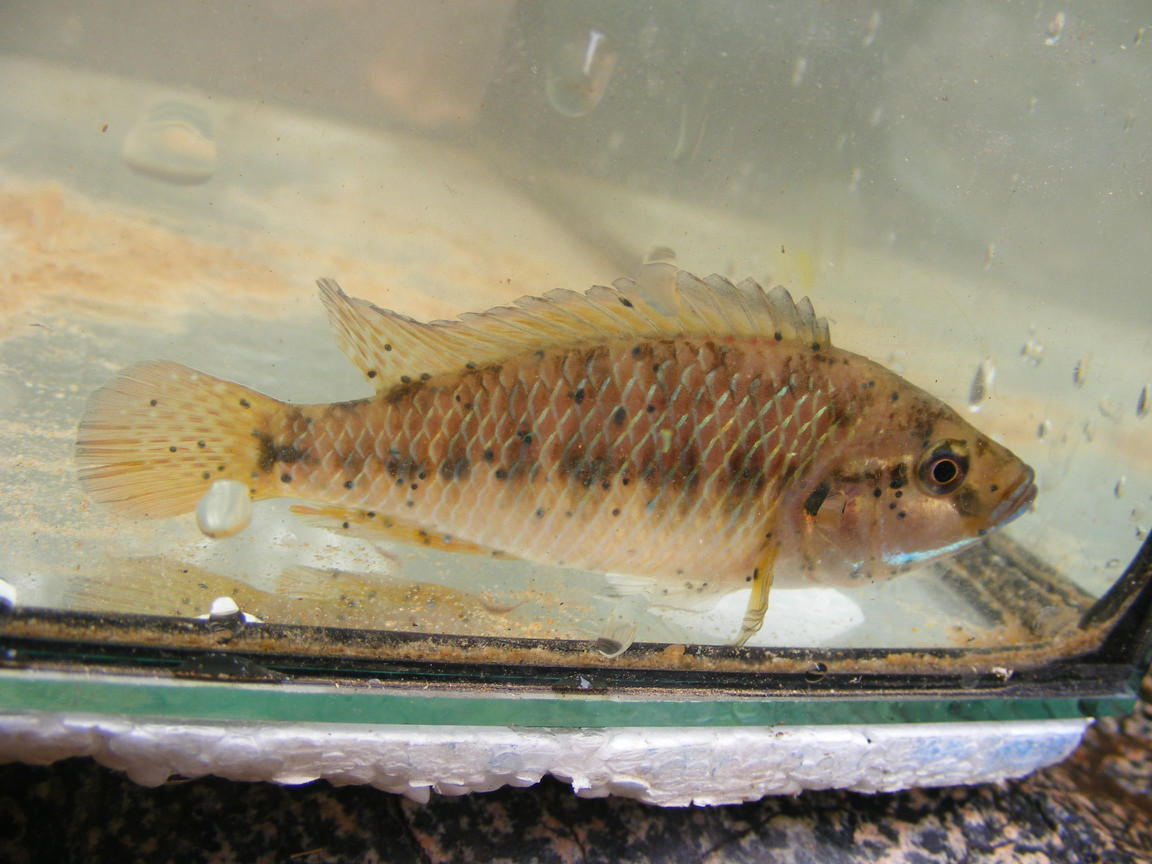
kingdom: Animalia
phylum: Chordata
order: Perciformes
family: Cichlidae
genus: Pseudocrenilabrus
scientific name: Pseudocrenilabrus philander
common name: Southern mouthbrooder
